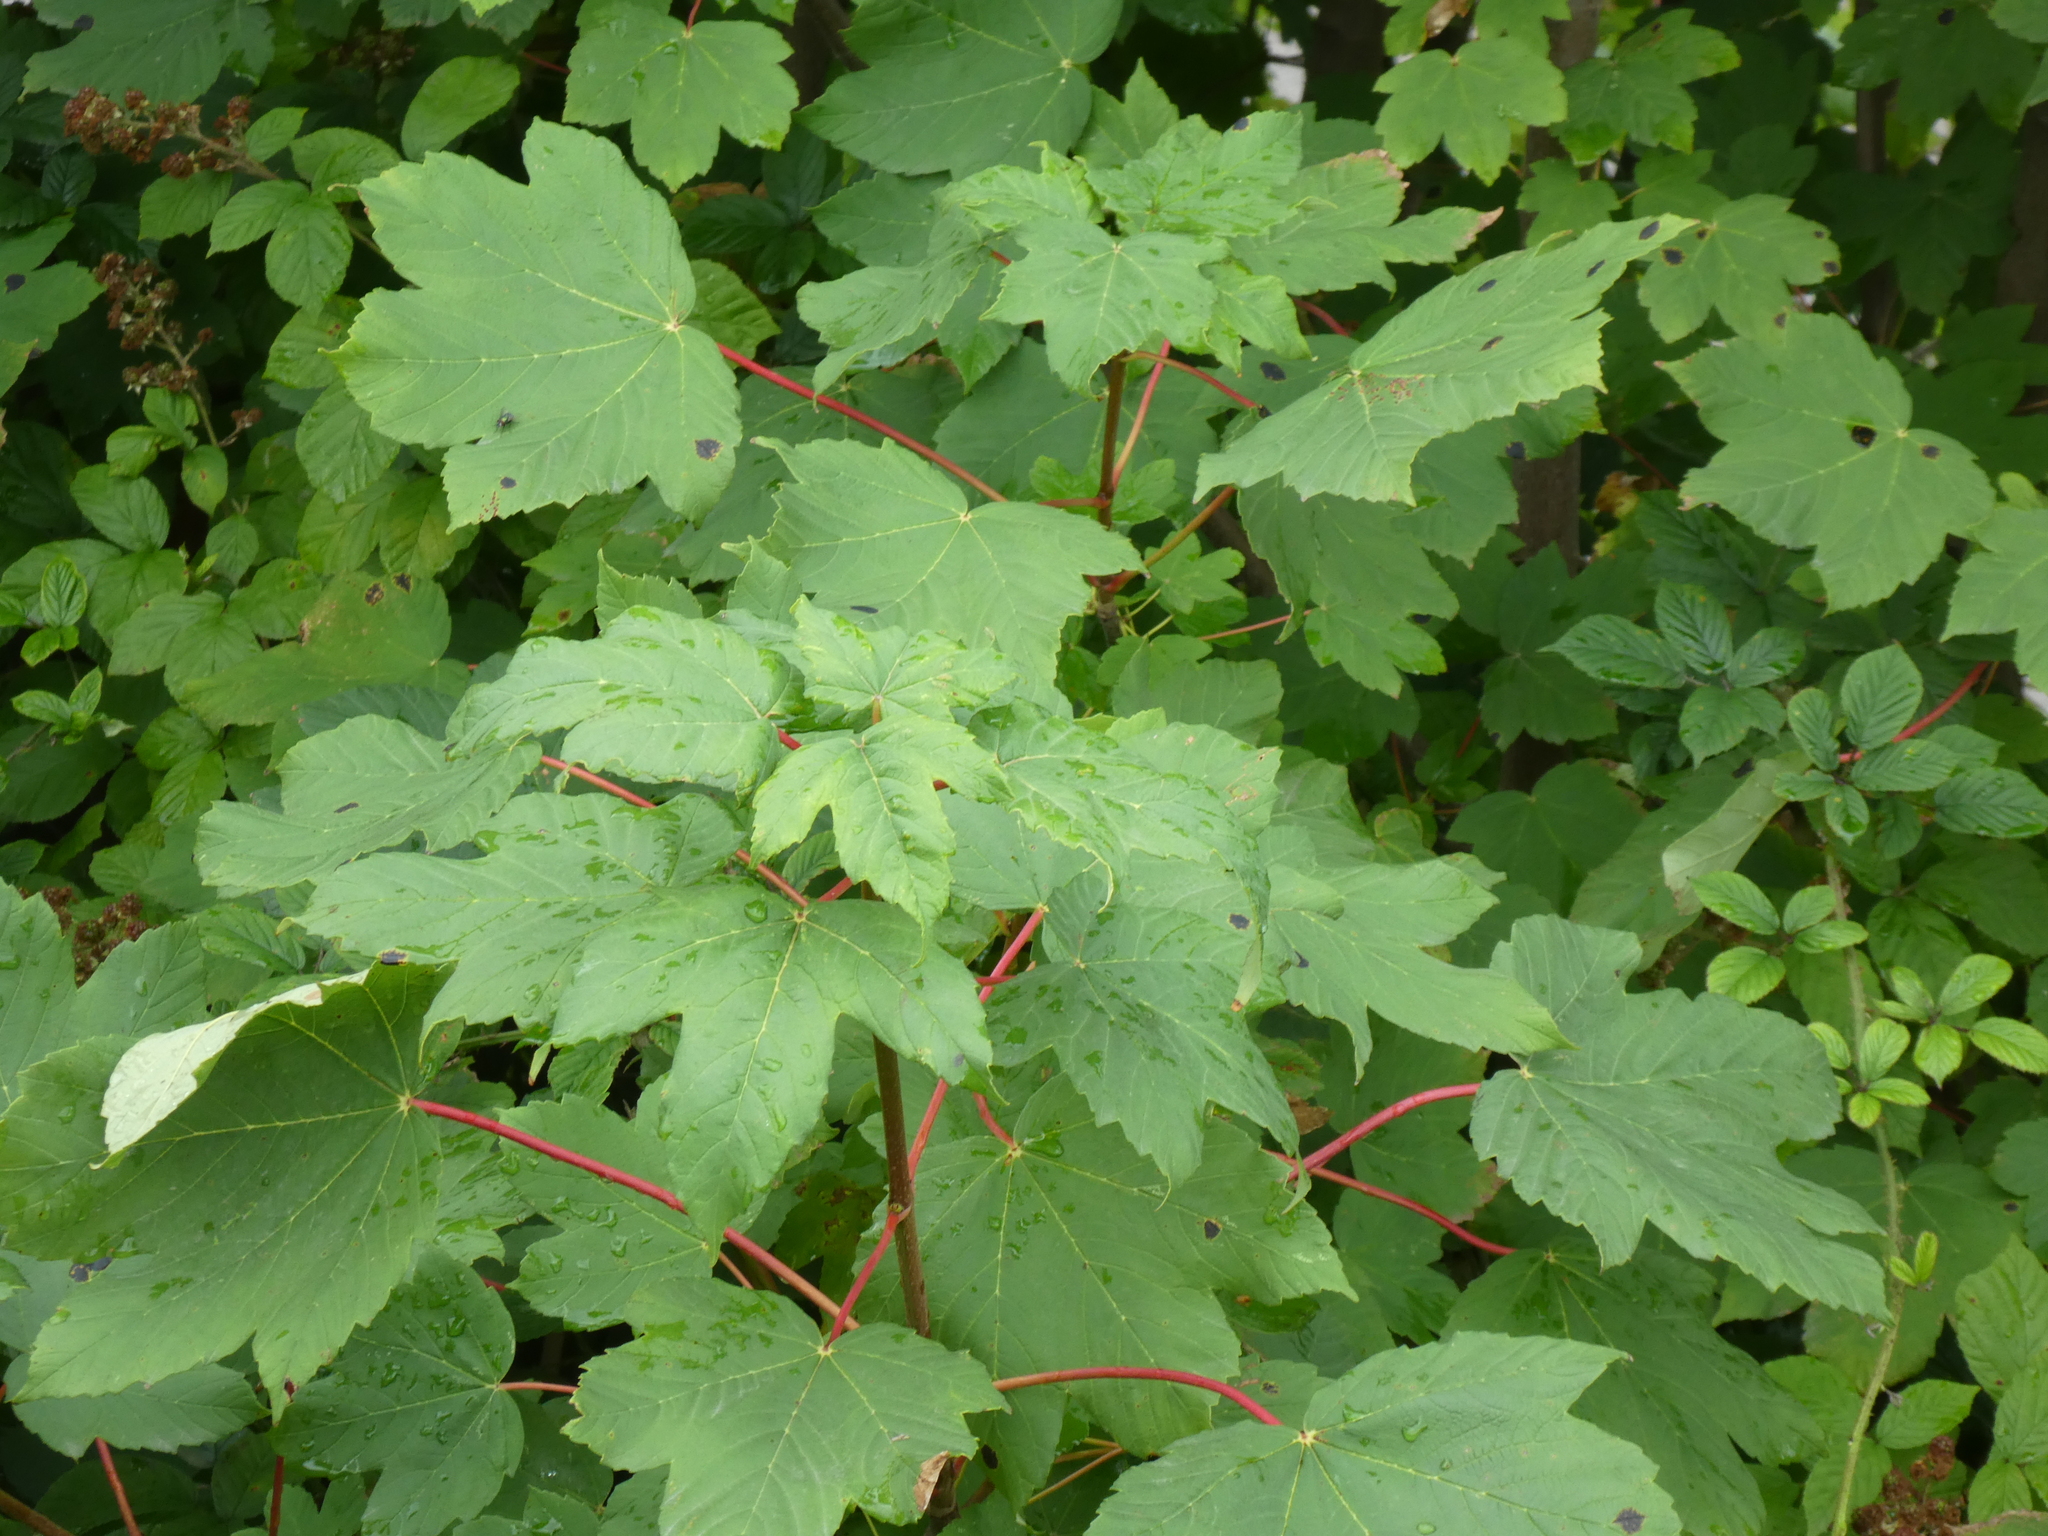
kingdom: Plantae
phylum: Tracheophyta
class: Magnoliopsida
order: Sapindales
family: Sapindaceae
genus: Acer
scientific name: Acer pseudoplatanus
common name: Sycamore
